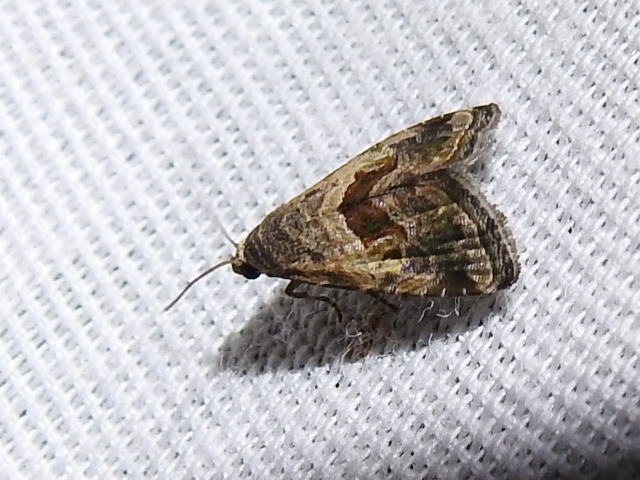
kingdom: Animalia
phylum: Arthropoda
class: Insecta
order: Lepidoptera
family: Noctuidae
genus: Tripudia
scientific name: Tripudia quadrifera
